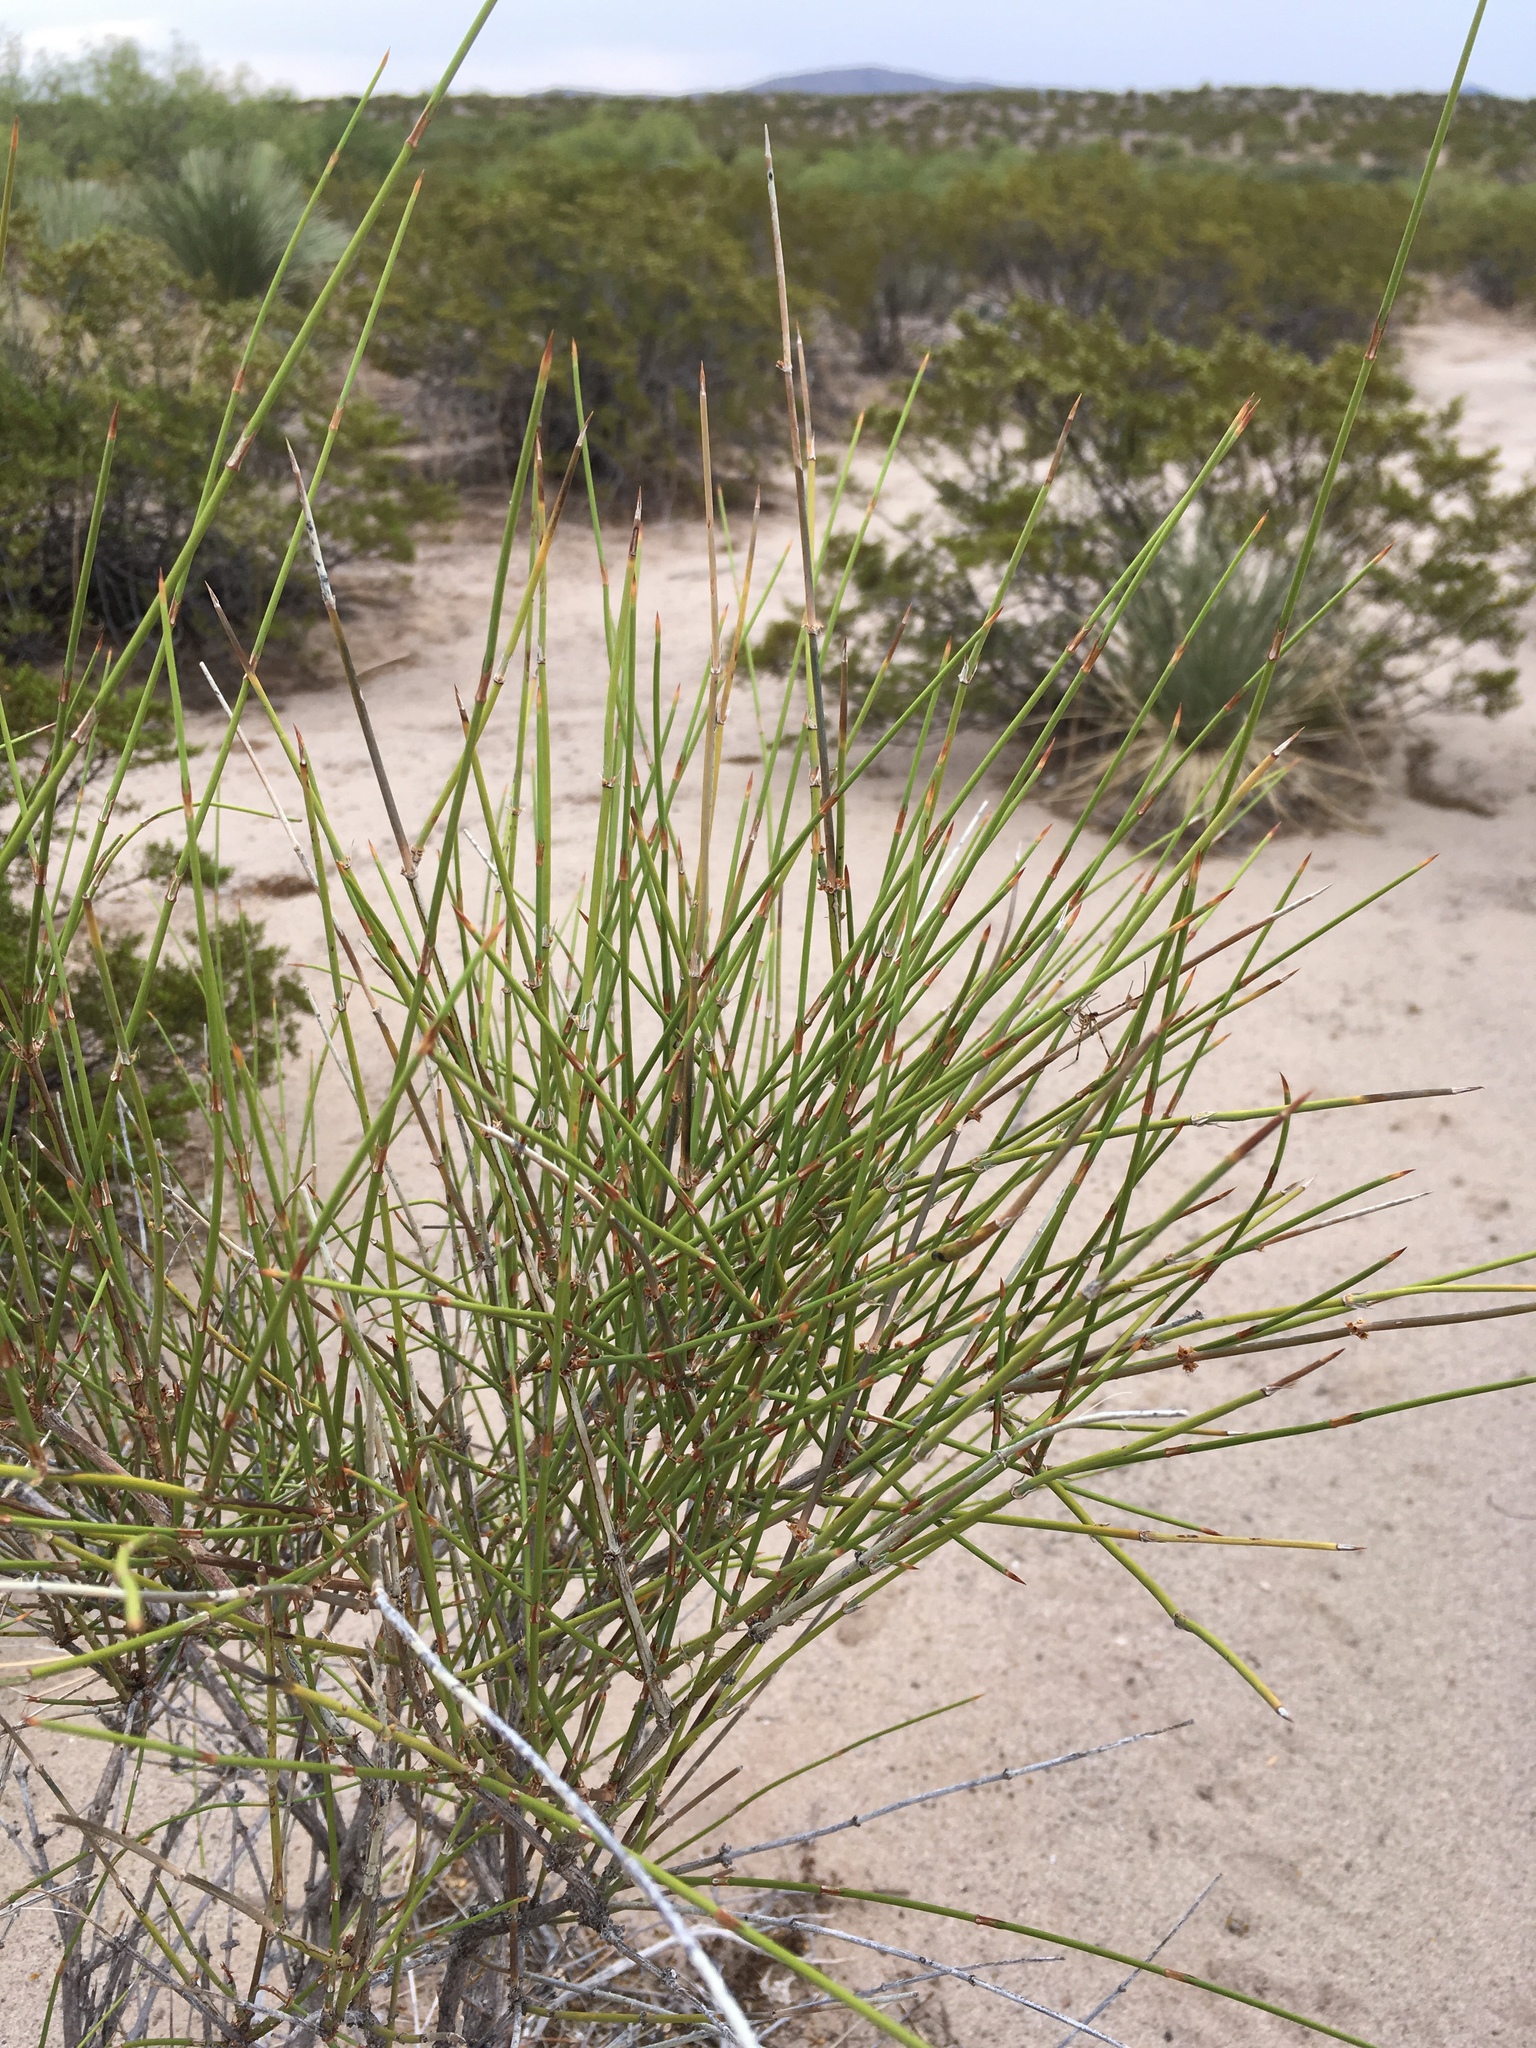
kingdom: Plantae
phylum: Tracheophyta
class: Gnetopsida
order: Ephedrales
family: Ephedraceae
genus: Ephedra
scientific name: Ephedra trifurca
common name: Mexican-tea
